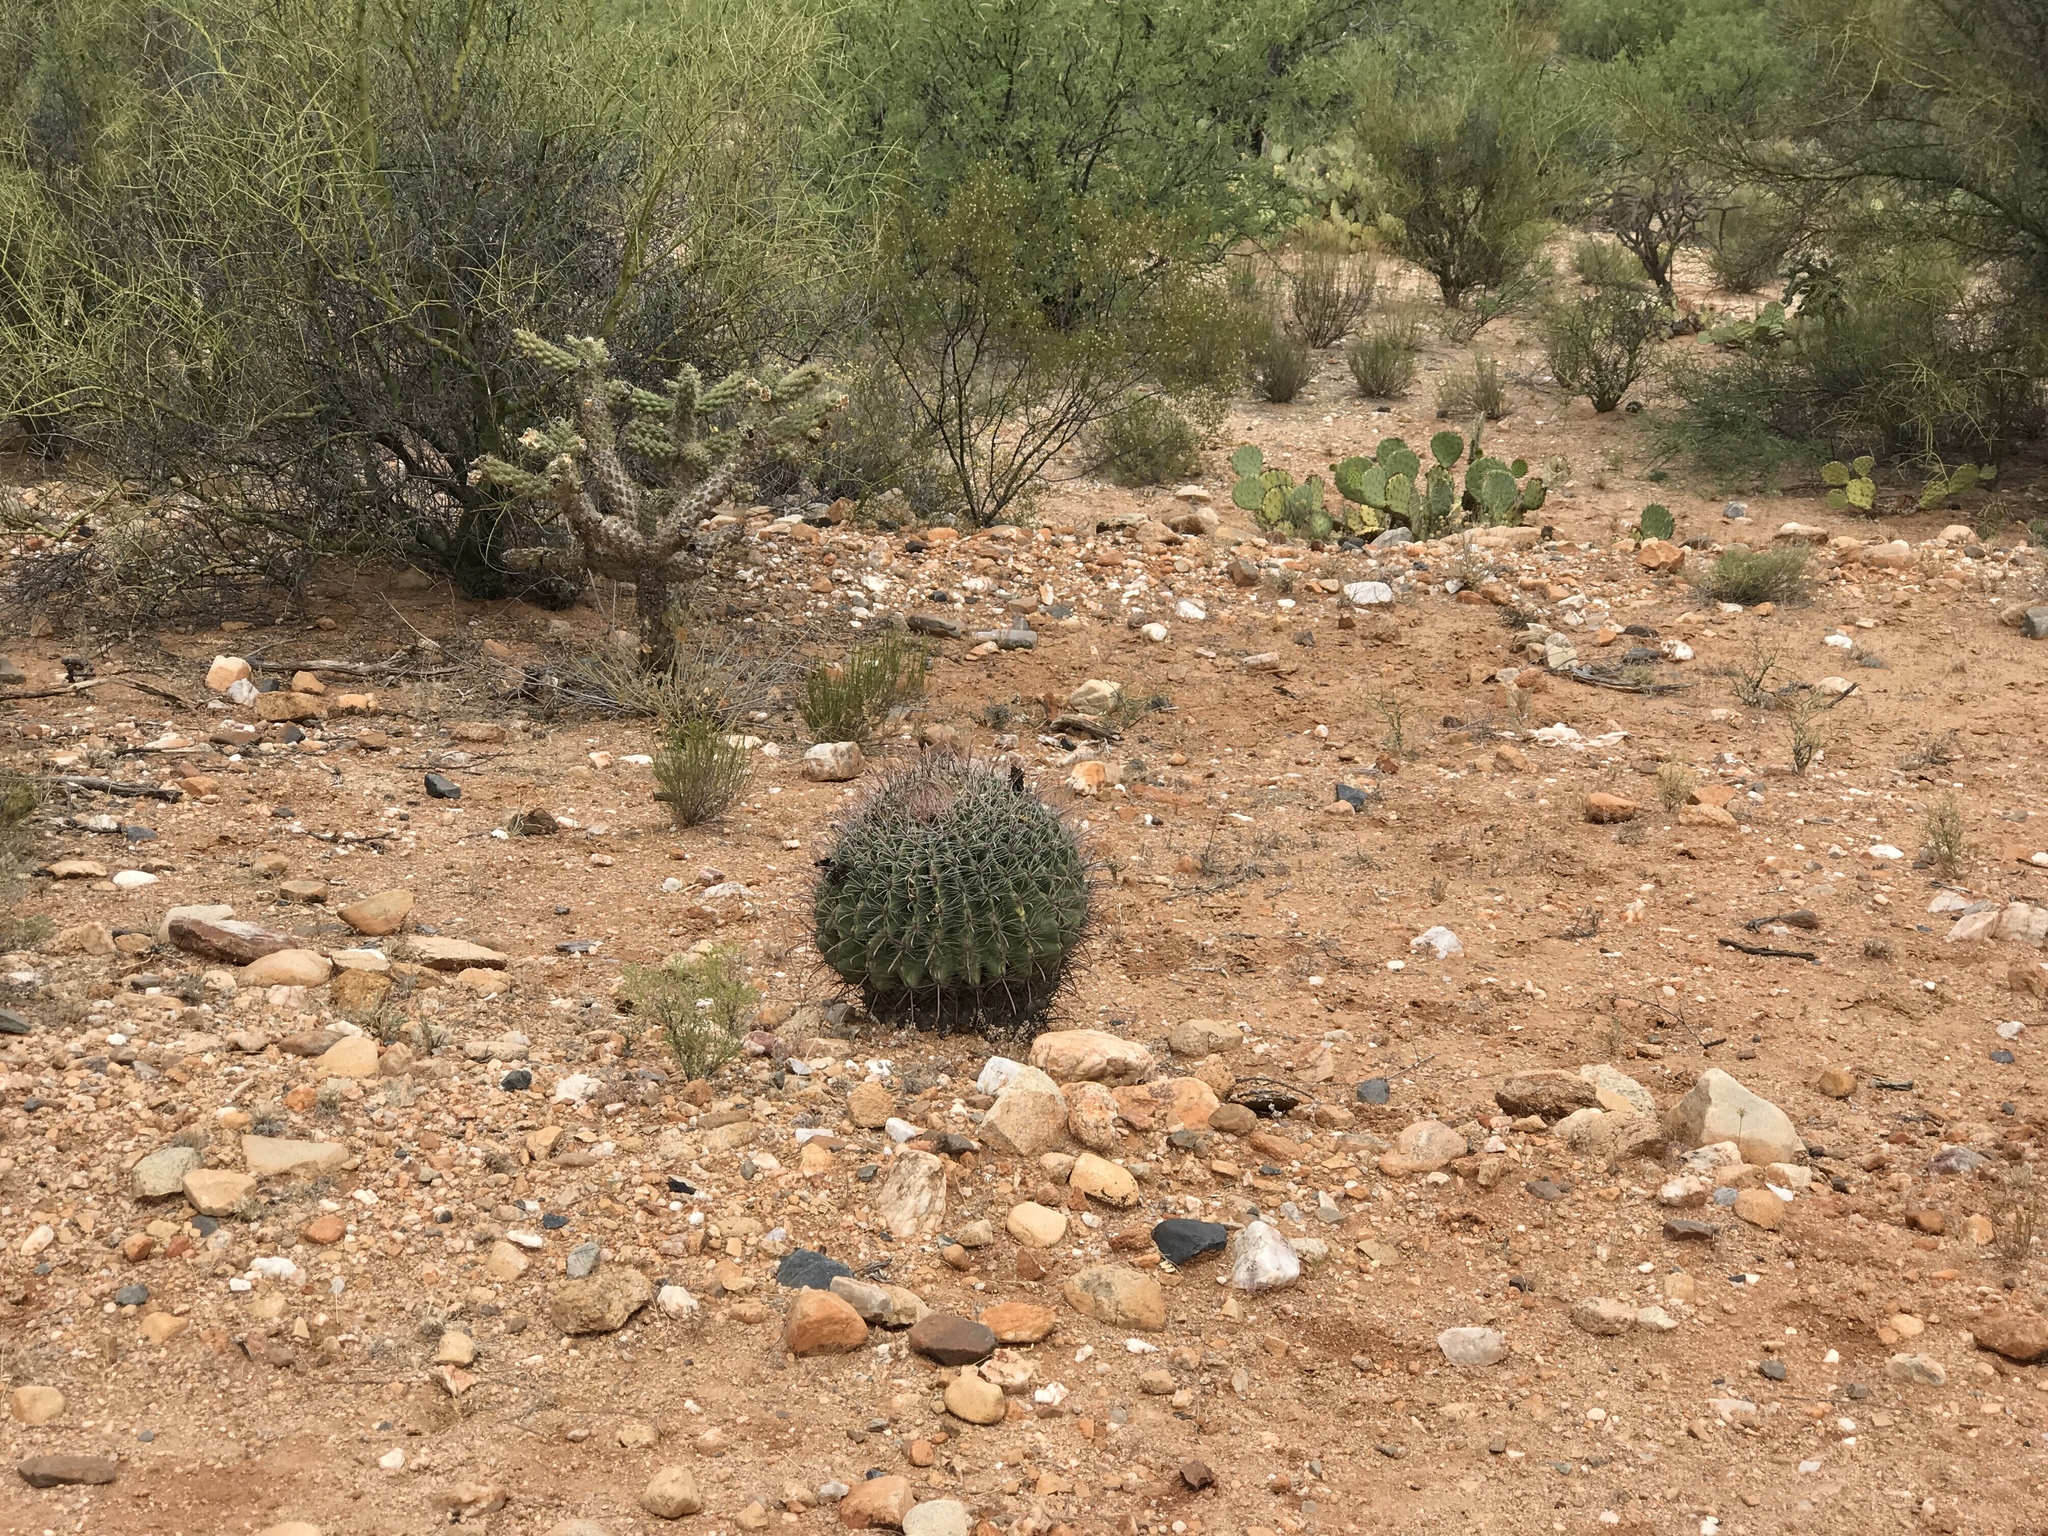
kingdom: Plantae
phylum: Tracheophyta
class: Magnoliopsida
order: Caryophyllales
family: Cactaceae
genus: Ferocactus
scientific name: Ferocactus wislizeni
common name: Candy barrel cactus
